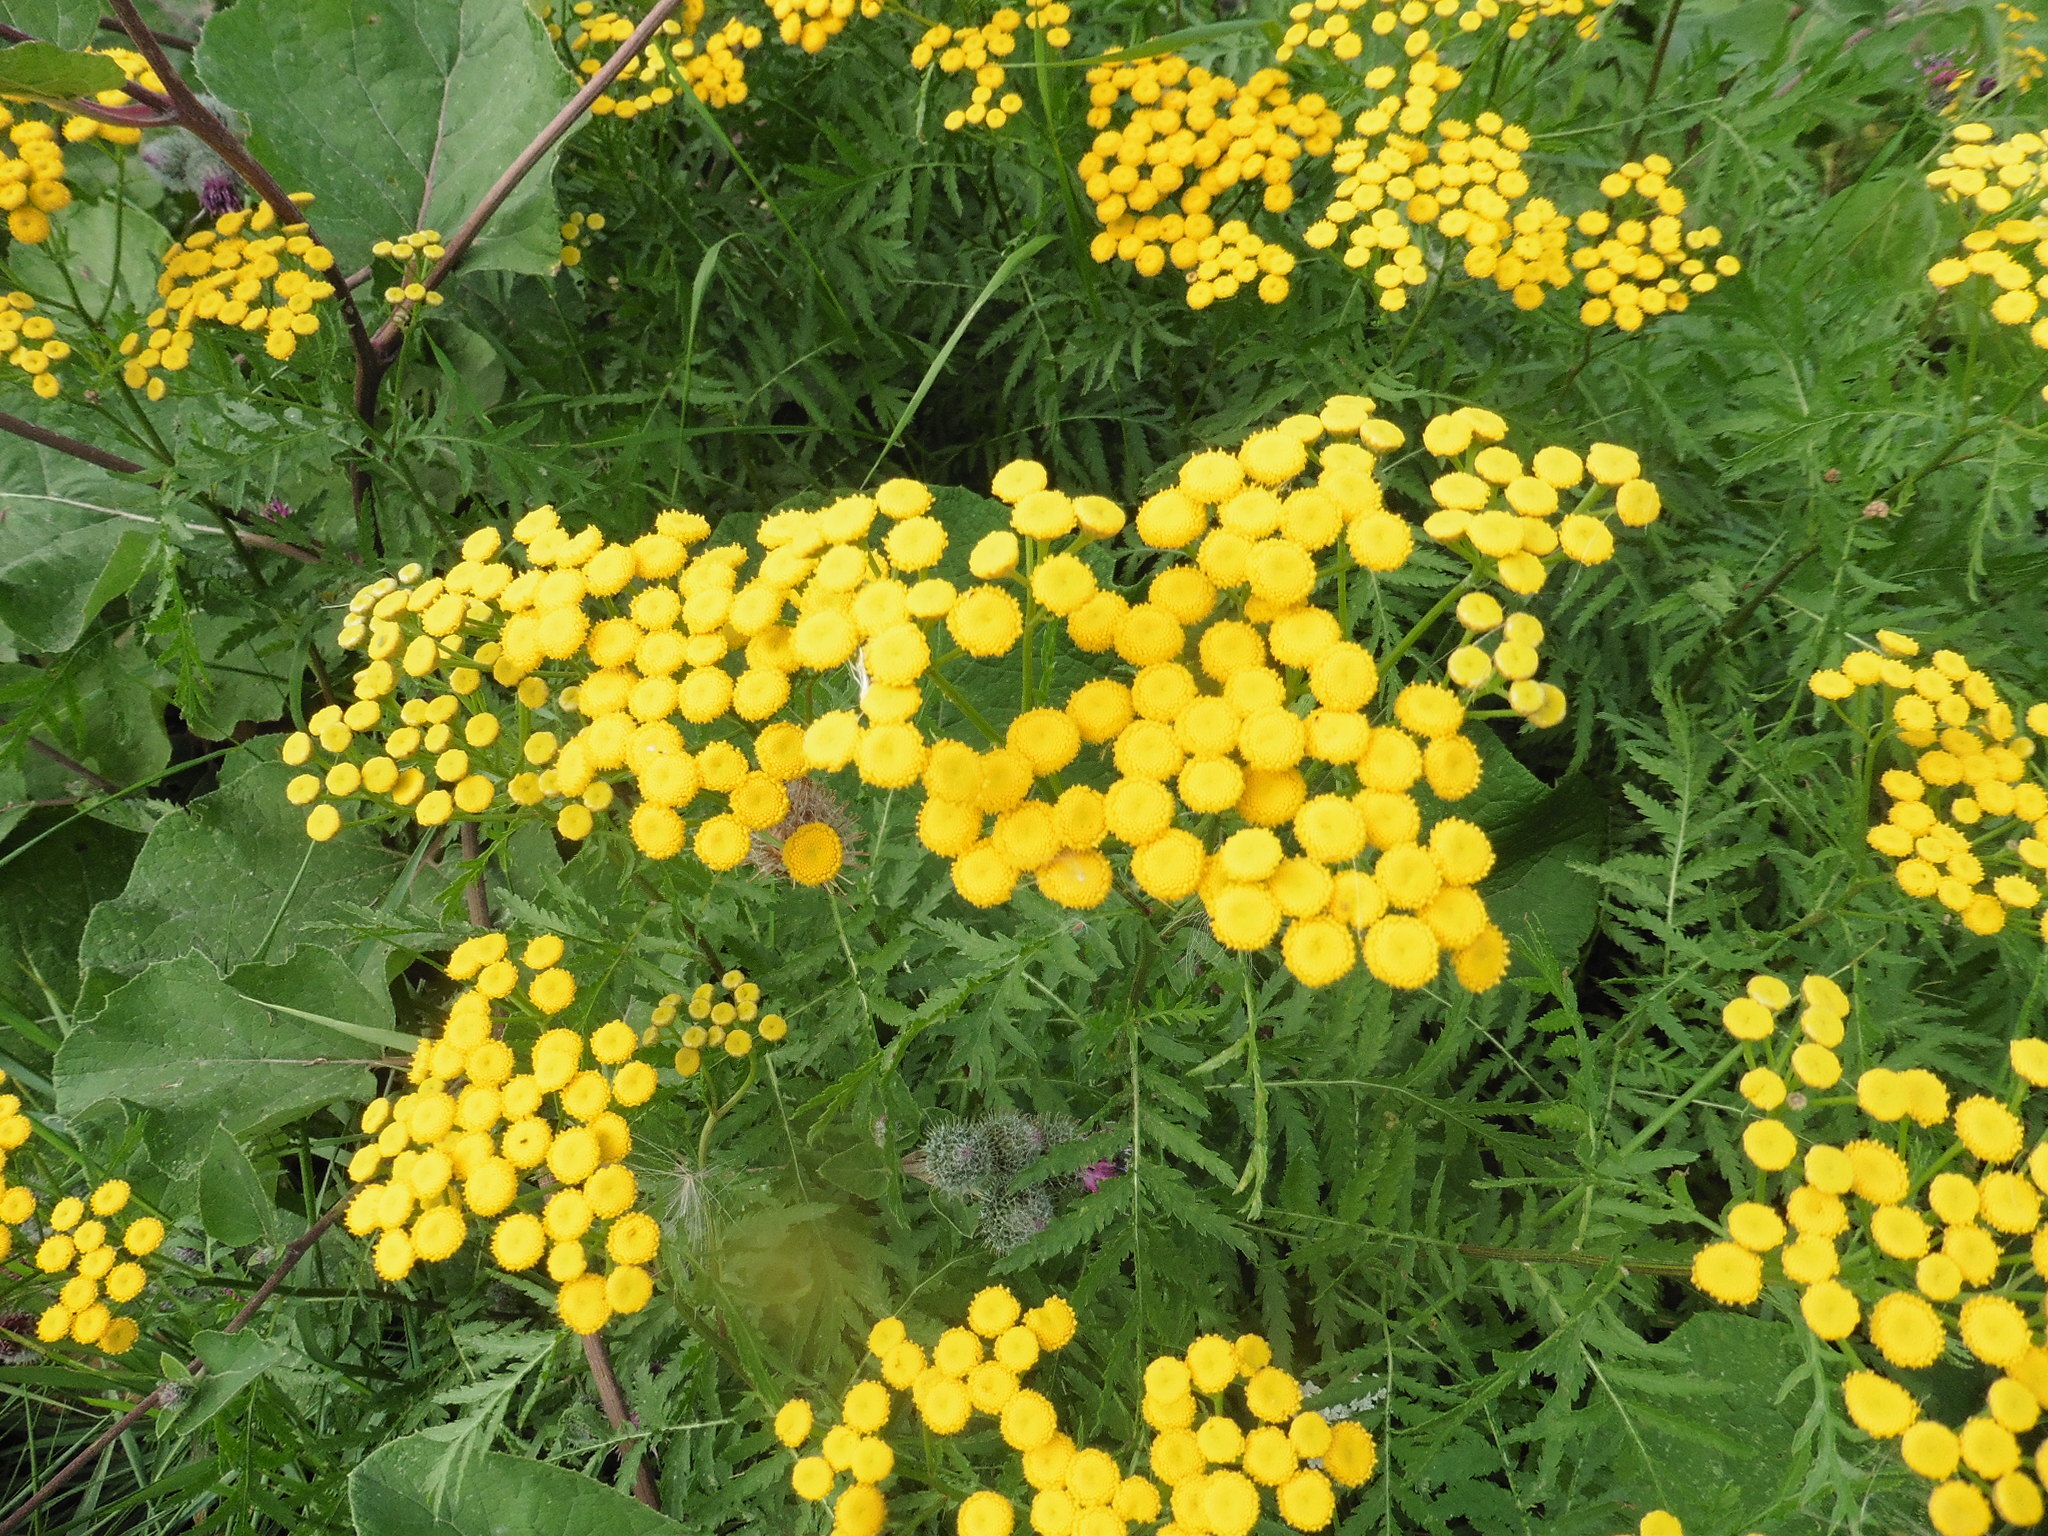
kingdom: Plantae
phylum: Tracheophyta
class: Magnoliopsida
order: Asterales
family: Asteraceae
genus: Tanacetum
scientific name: Tanacetum vulgare
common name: Common tansy
